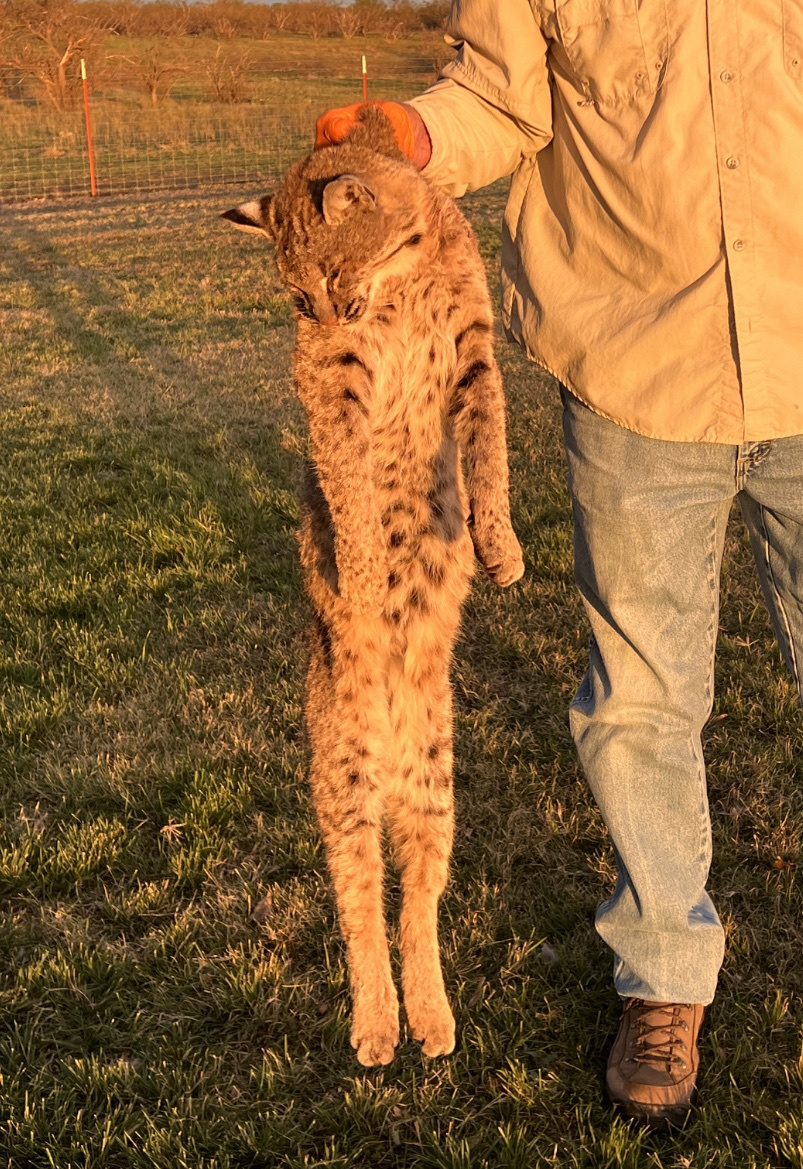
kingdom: Animalia
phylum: Chordata
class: Mammalia
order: Carnivora
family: Felidae
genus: Lynx
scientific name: Lynx rufus
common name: Bobcat
